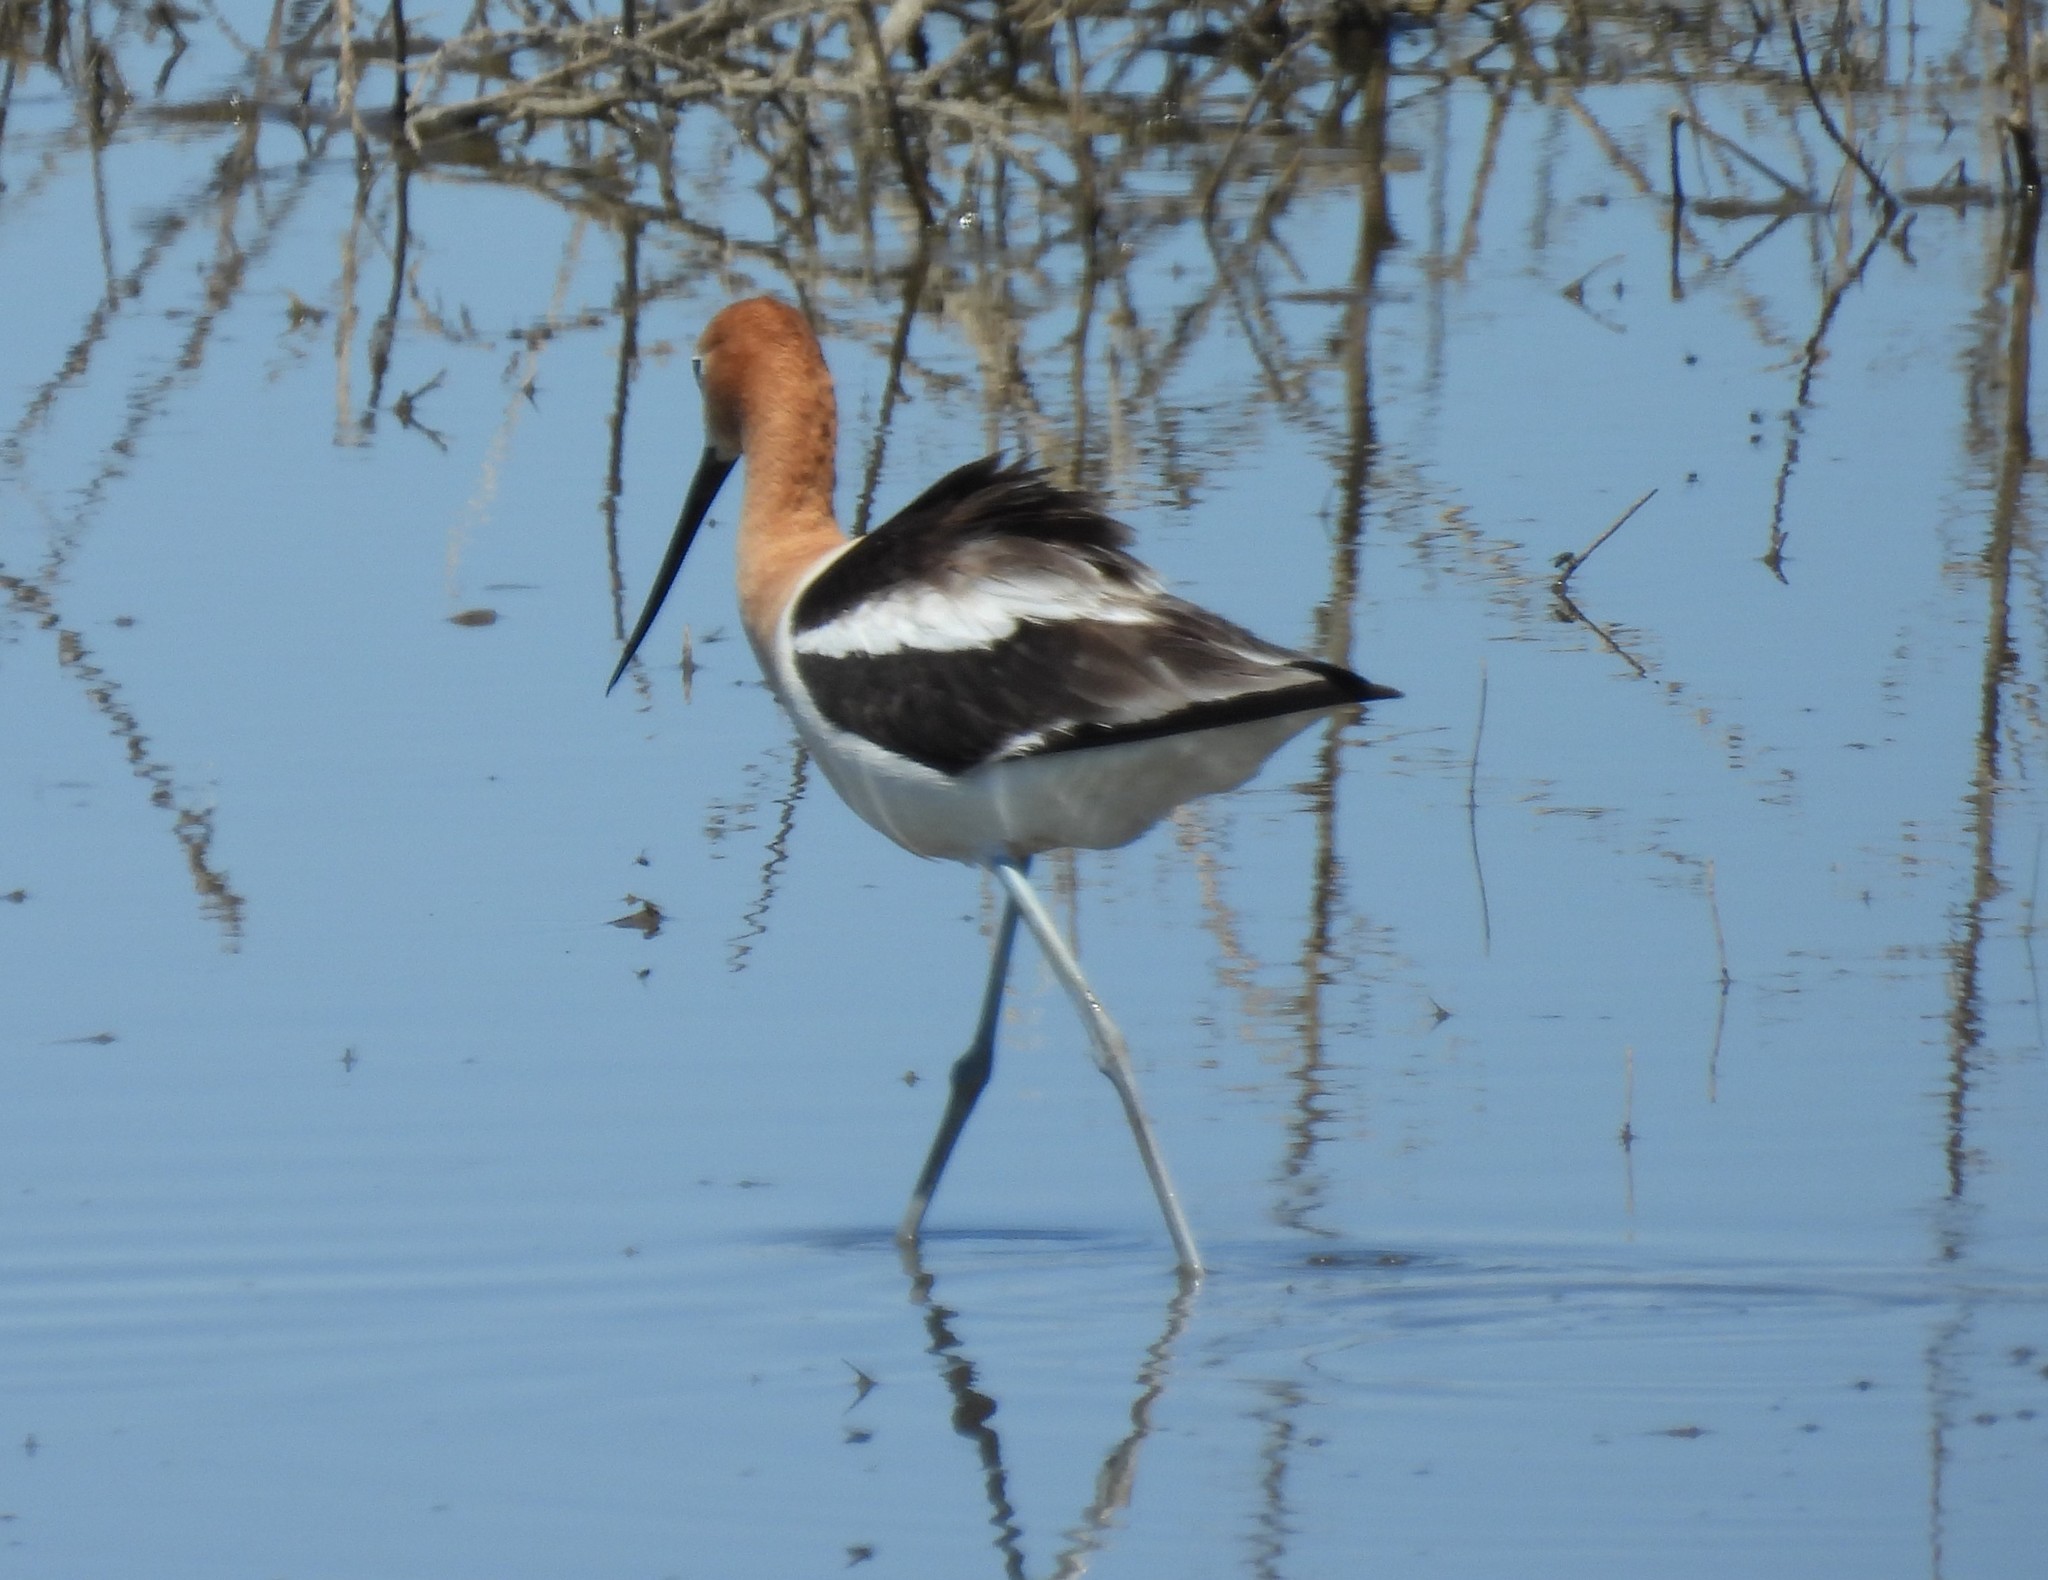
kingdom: Animalia
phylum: Chordata
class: Aves
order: Charadriiformes
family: Recurvirostridae
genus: Recurvirostra
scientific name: Recurvirostra americana
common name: American avocet
